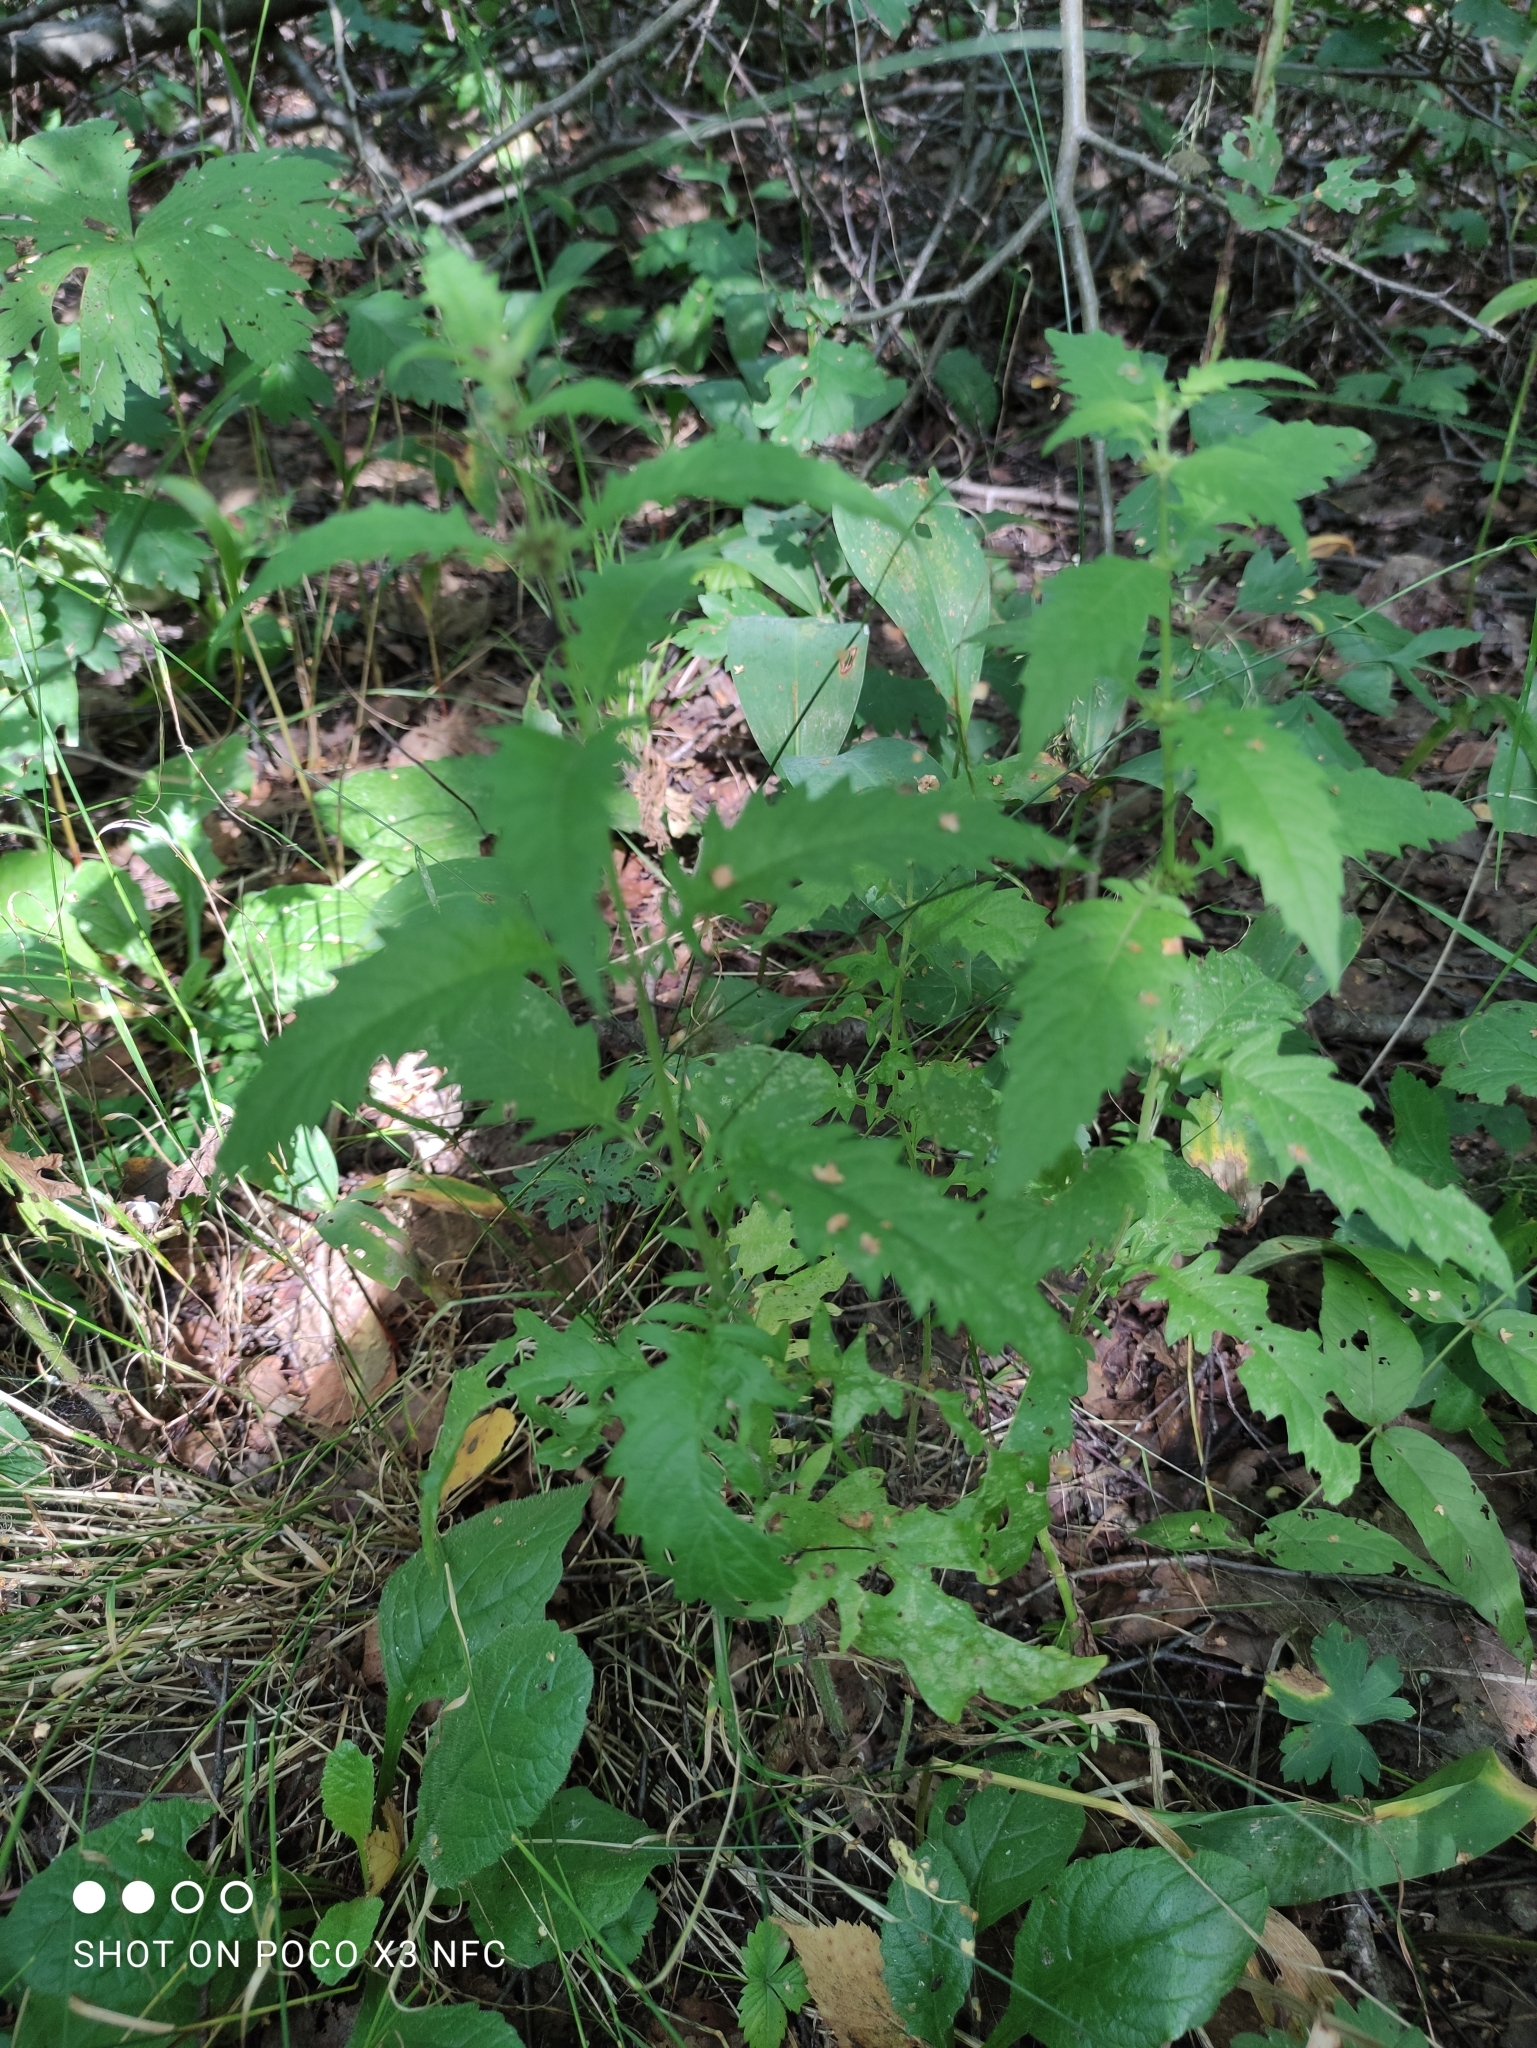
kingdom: Plantae
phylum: Tracheophyta
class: Magnoliopsida
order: Lamiales
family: Lamiaceae
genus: Lycopus
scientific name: Lycopus europaeus
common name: European bugleweed
